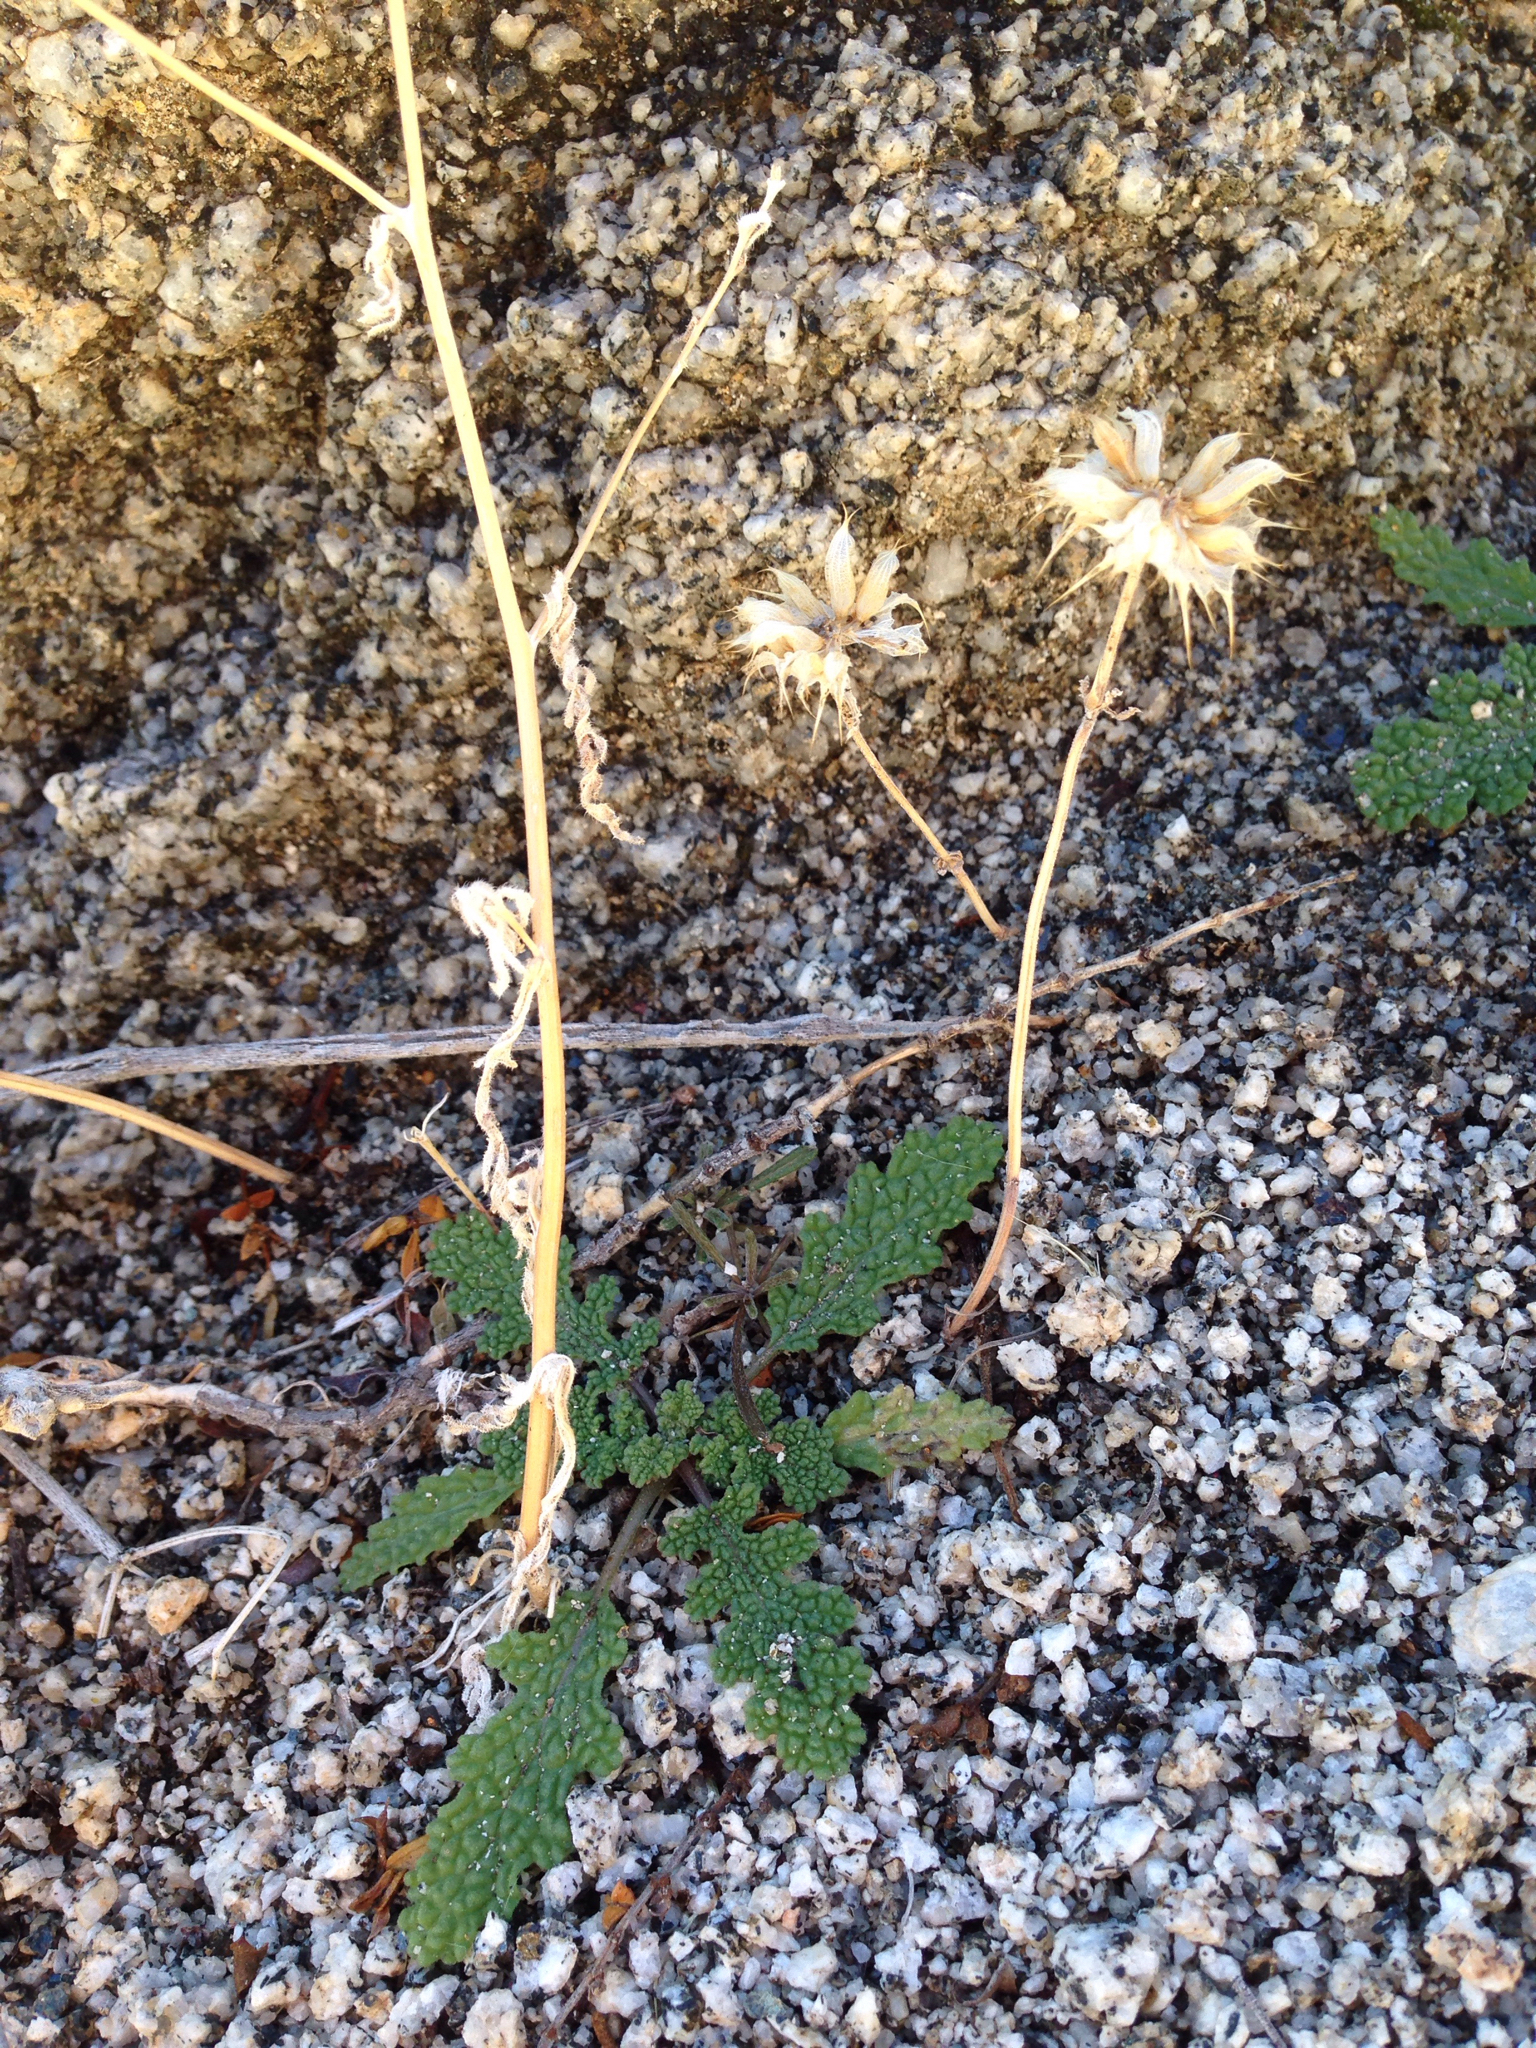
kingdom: Plantae
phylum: Tracheophyta
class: Magnoliopsida
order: Lamiales
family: Lamiaceae
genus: Salvia
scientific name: Salvia columbariae
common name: Chia
